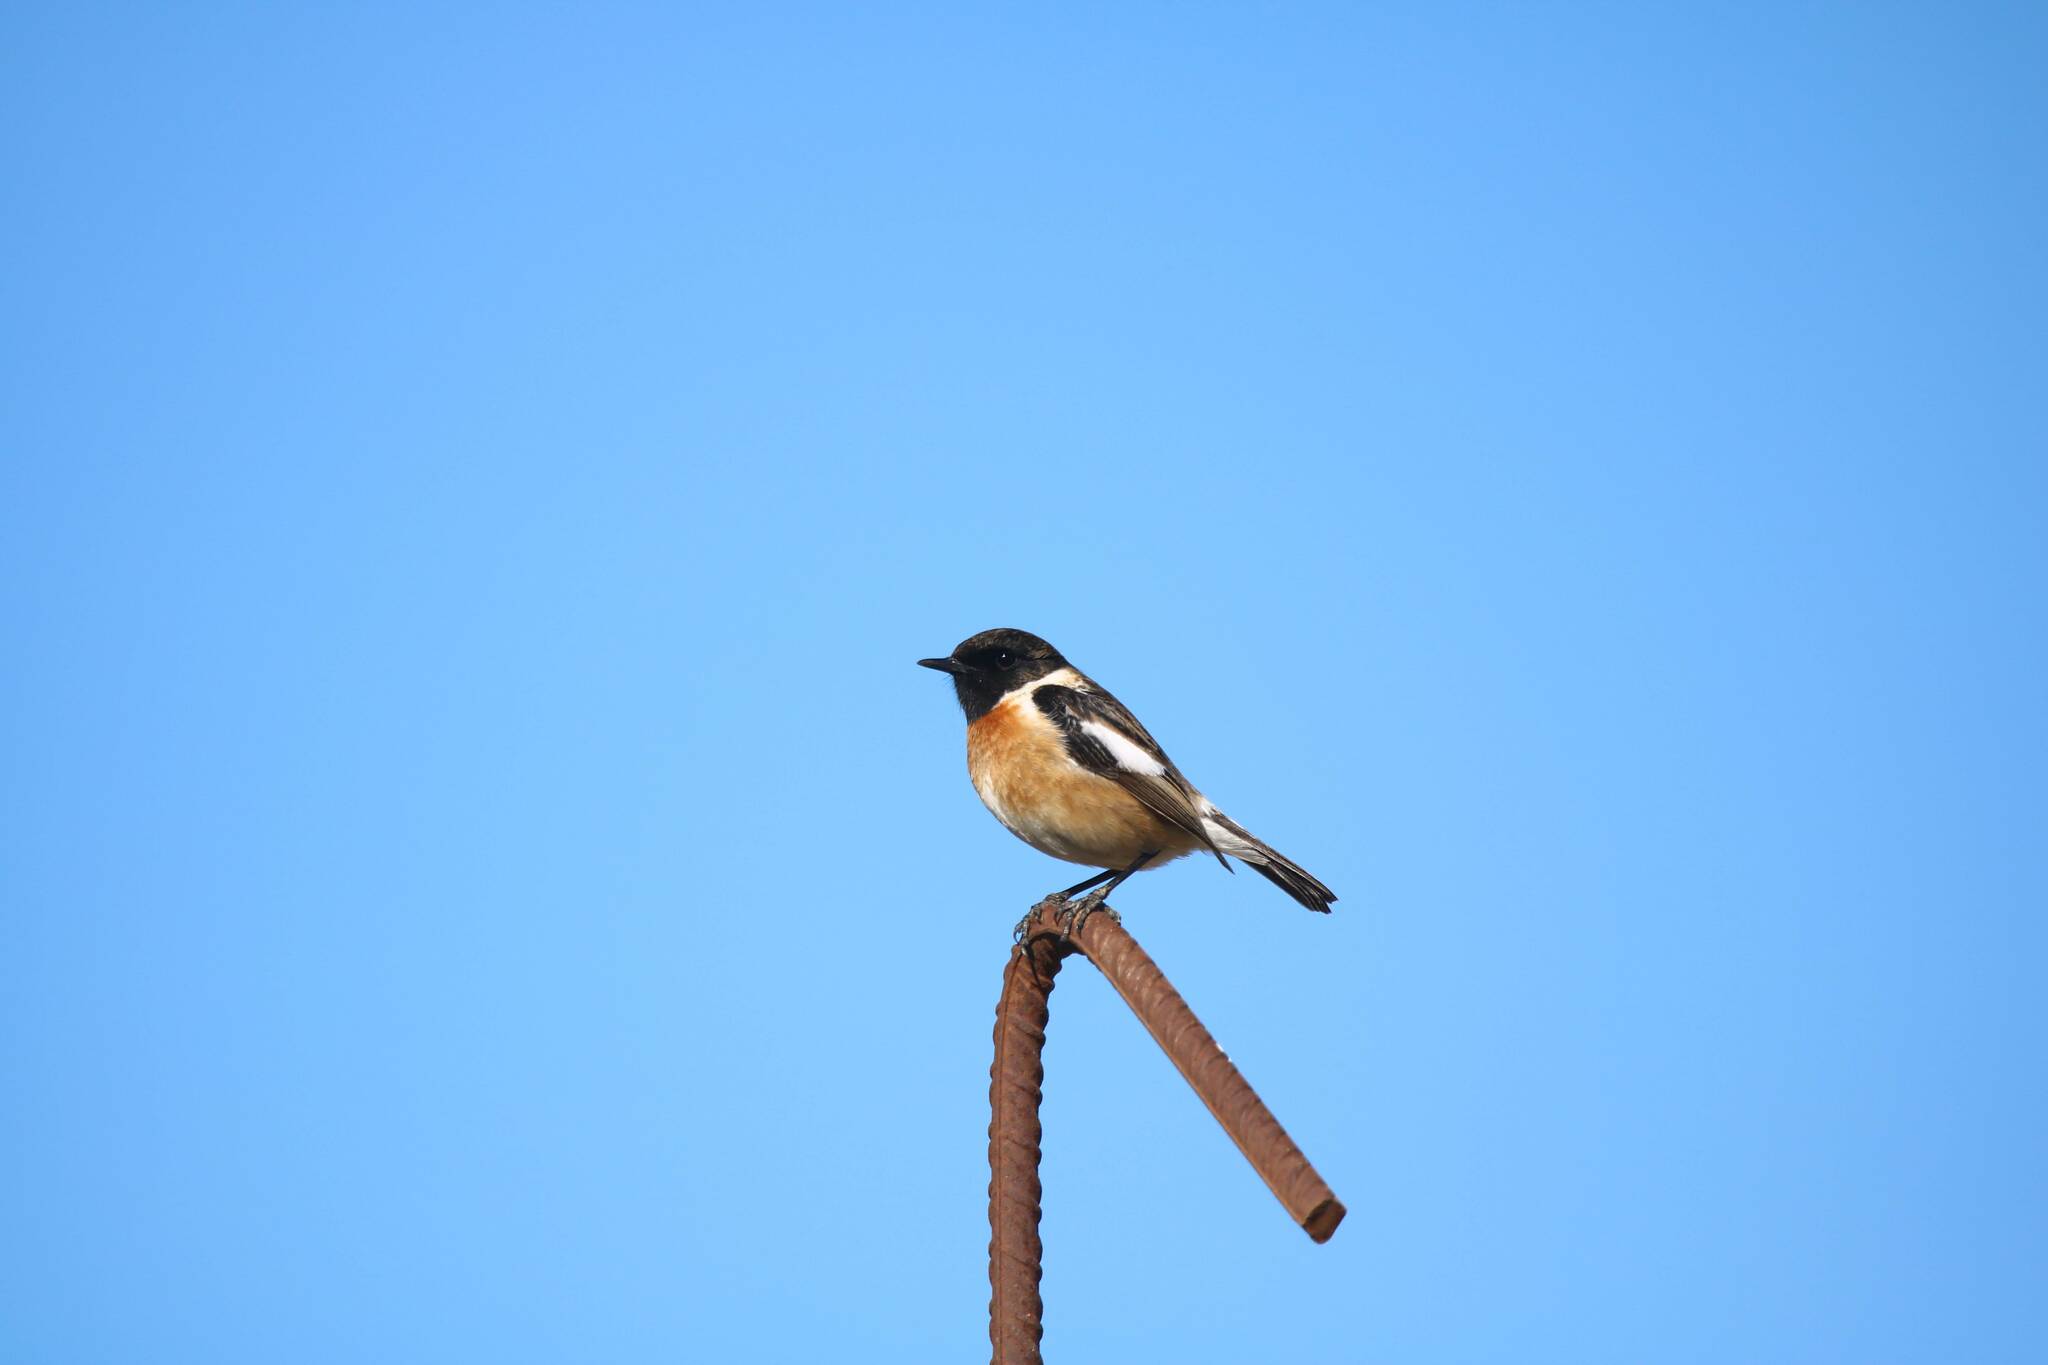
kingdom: Animalia
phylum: Chordata
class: Aves
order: Passeriformes
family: Muscicapidae
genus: Saxicola
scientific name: Saxicola rubicola
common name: European stonechat
